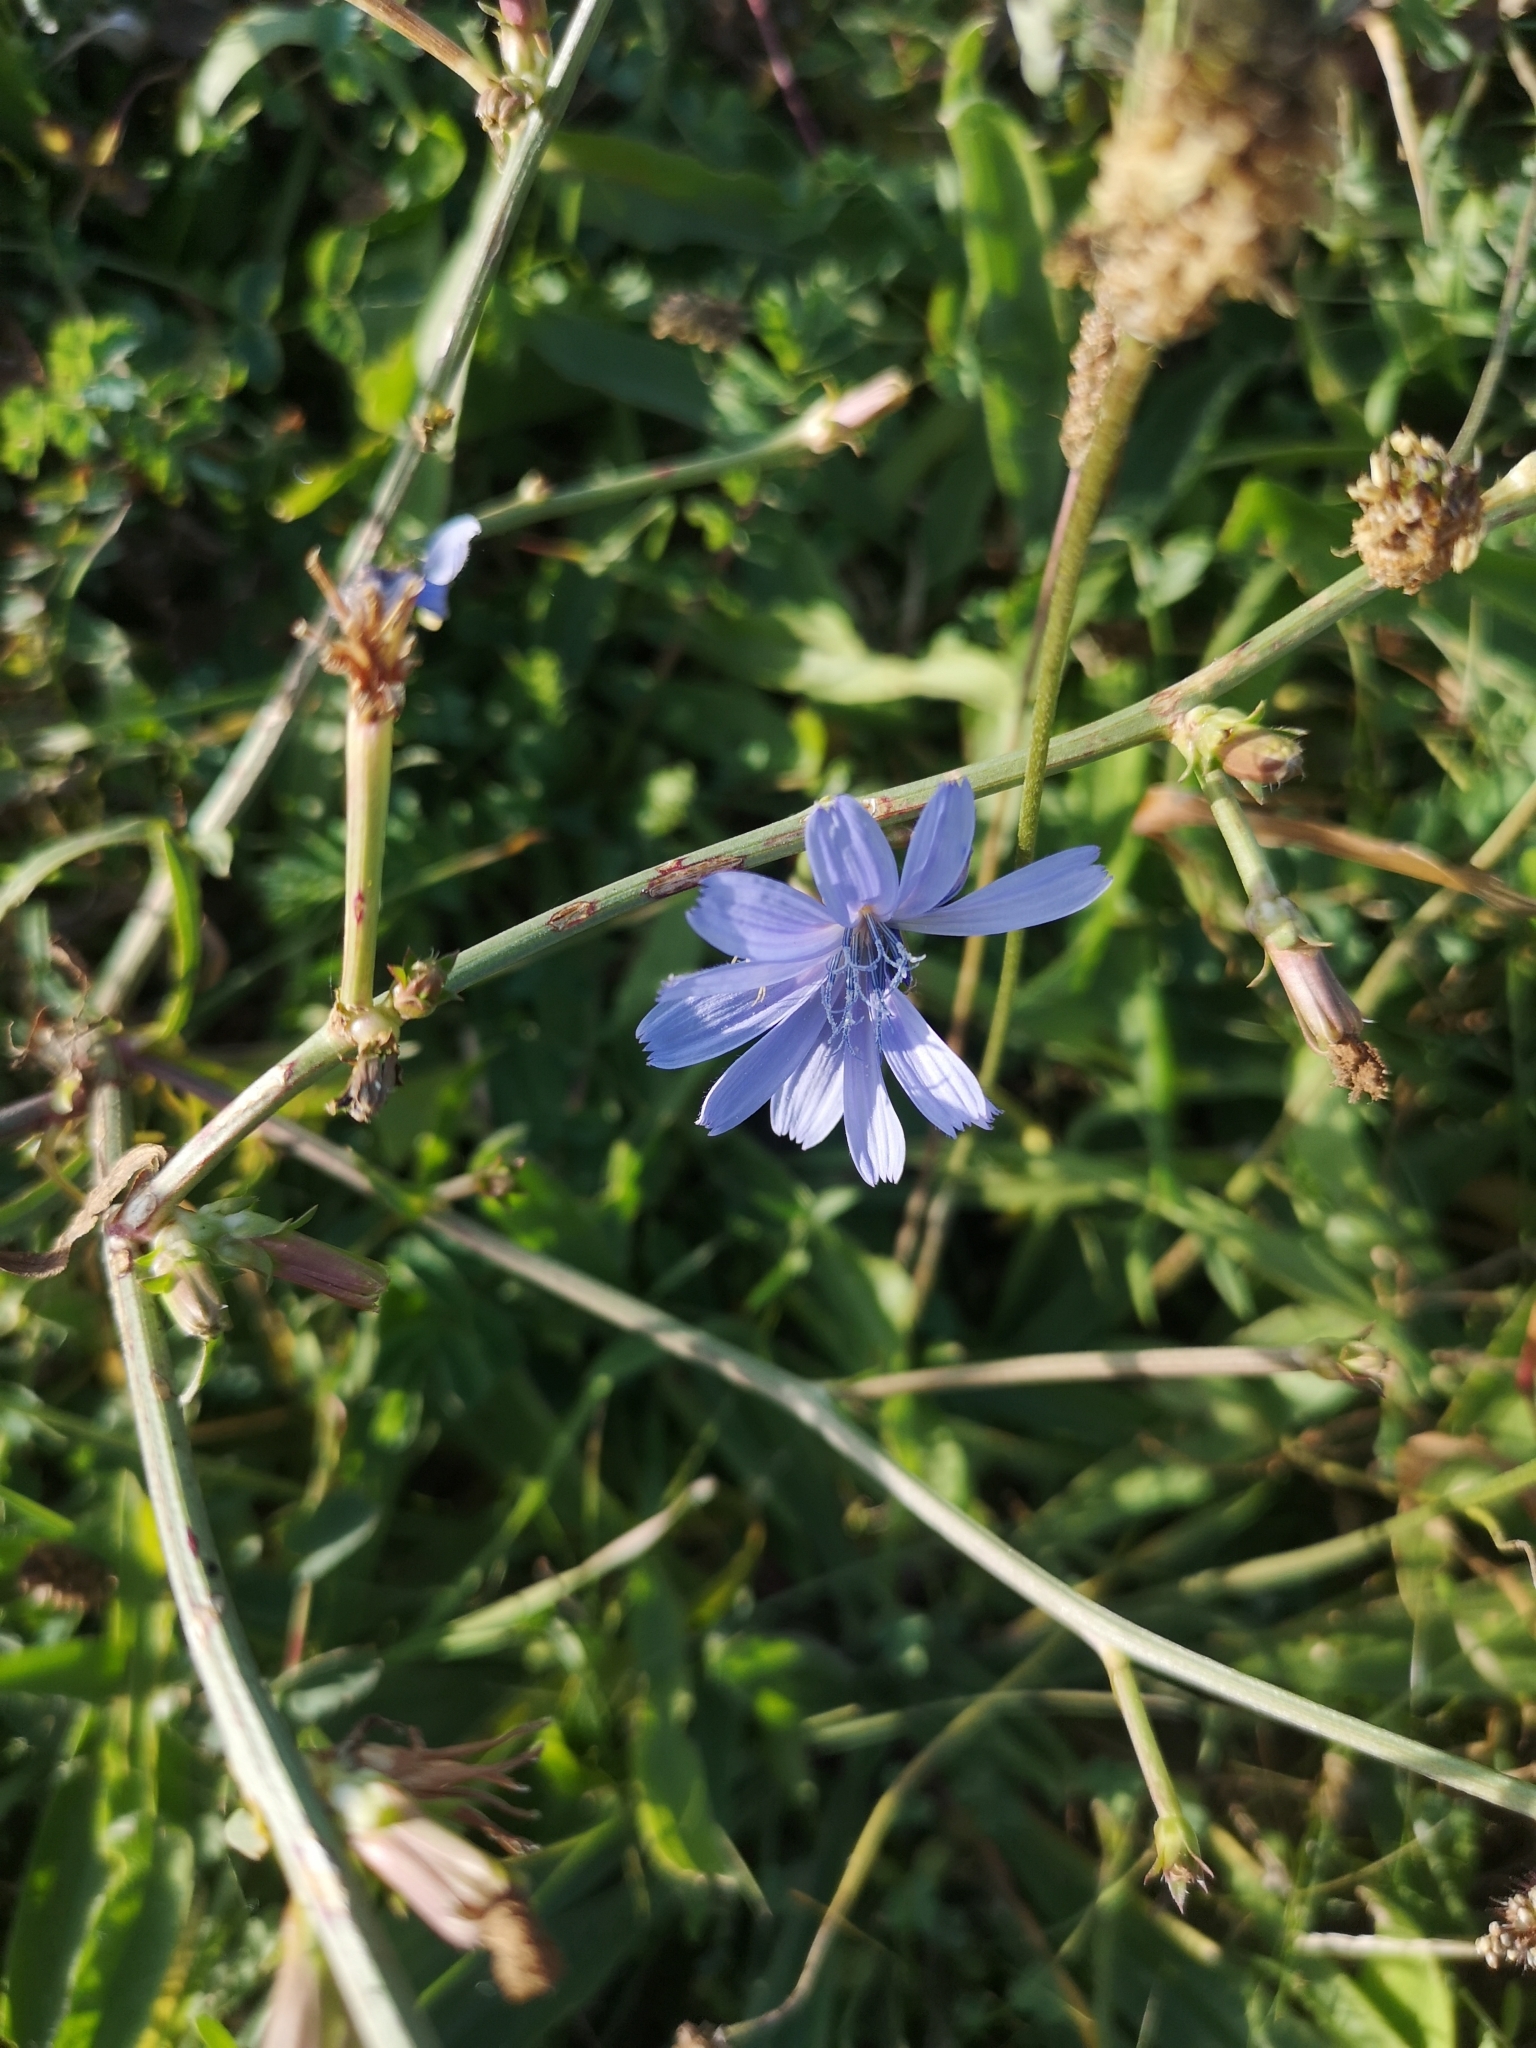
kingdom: Plantae
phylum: Tracheophyta
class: Magnoliopsida
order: Asterales
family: Asteraceae
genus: Cichorium
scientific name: Cichorium intybus
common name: Chicory
